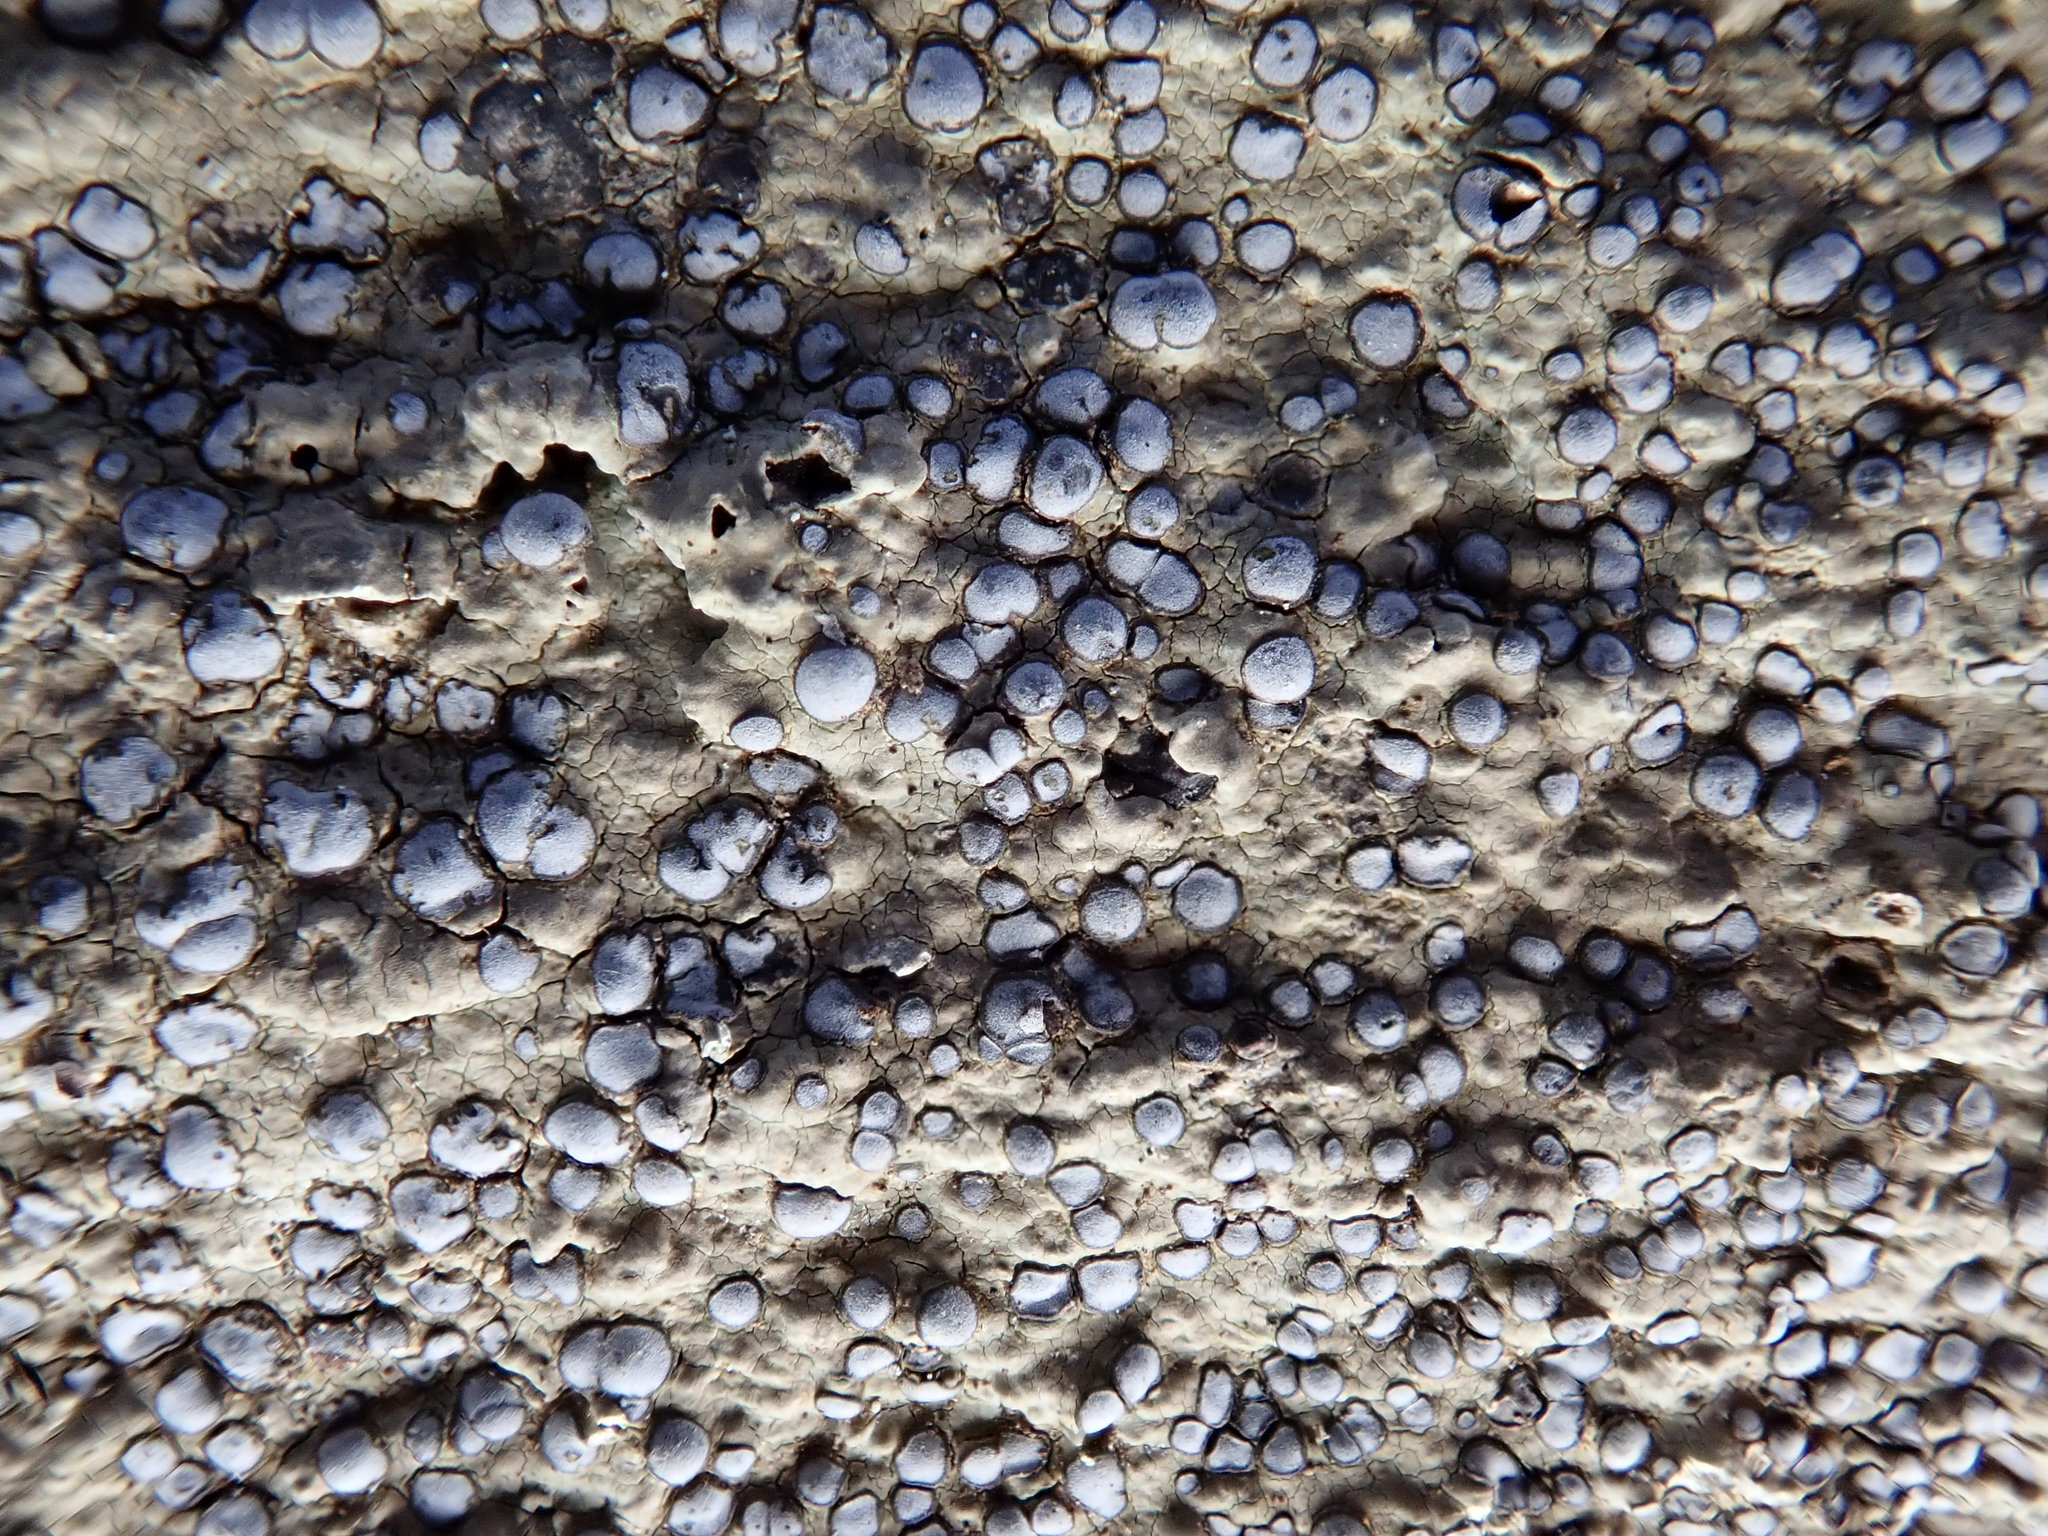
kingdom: Fungi
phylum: Ascomycota
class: Lecanoromycetes
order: Lecideales
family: Lecideaceae
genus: Porpidia
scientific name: Porpidia albocaerulescens
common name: Smokey-eyed boulder lichen
